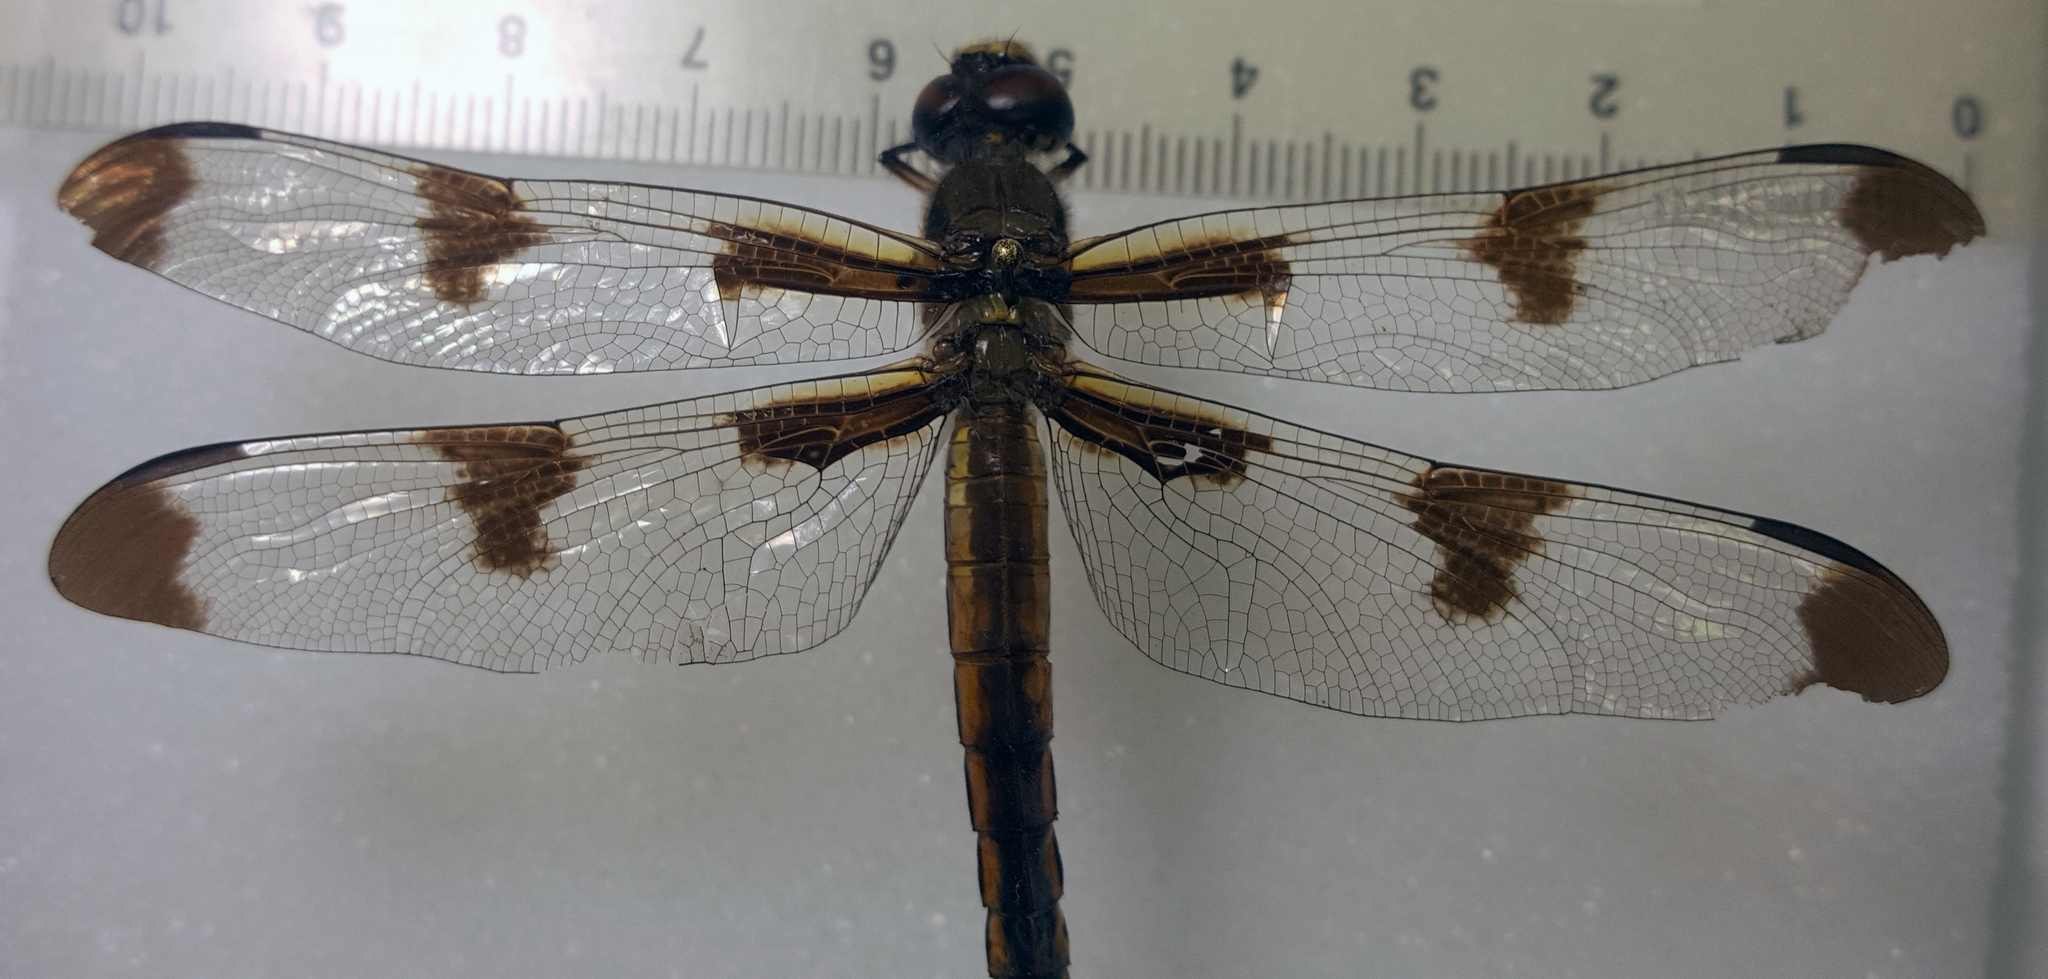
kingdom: Animalia
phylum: Arthropoda
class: Insecta
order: Odonata
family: Libellulidae
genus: Libellula
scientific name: Libellula pulchella
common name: Twelve-spotted skimmer
